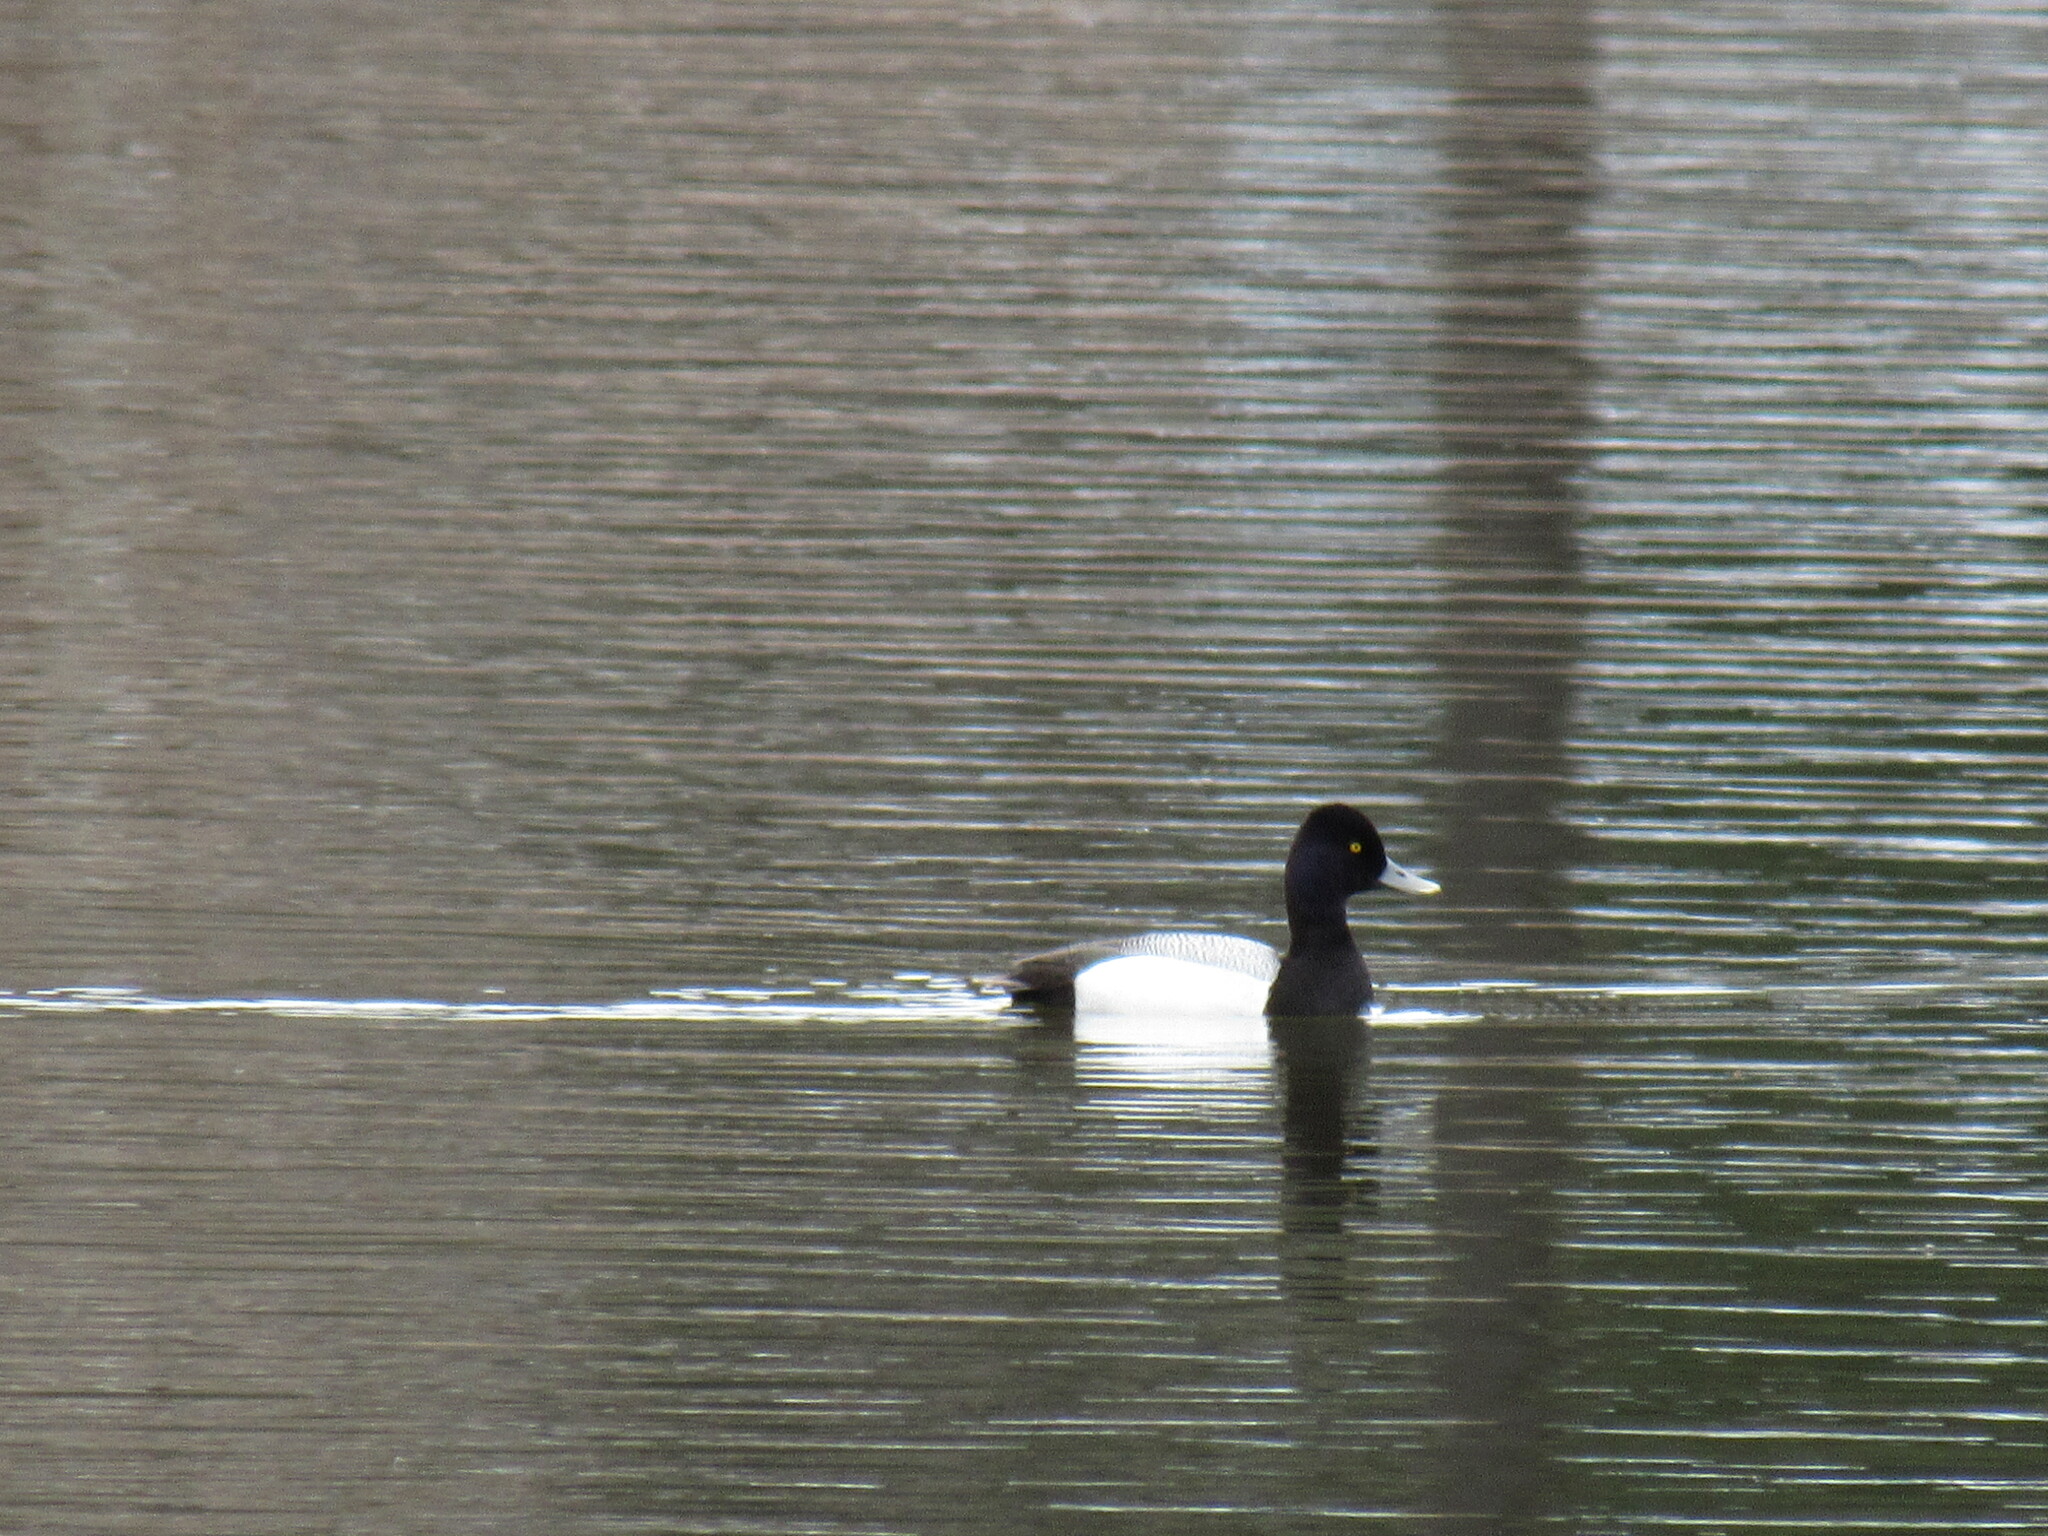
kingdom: Animalia
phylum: Chordata
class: Aves
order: Anseriformes
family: Anatidae
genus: Aythya
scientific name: Aythya affinis
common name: Lesser scaup
